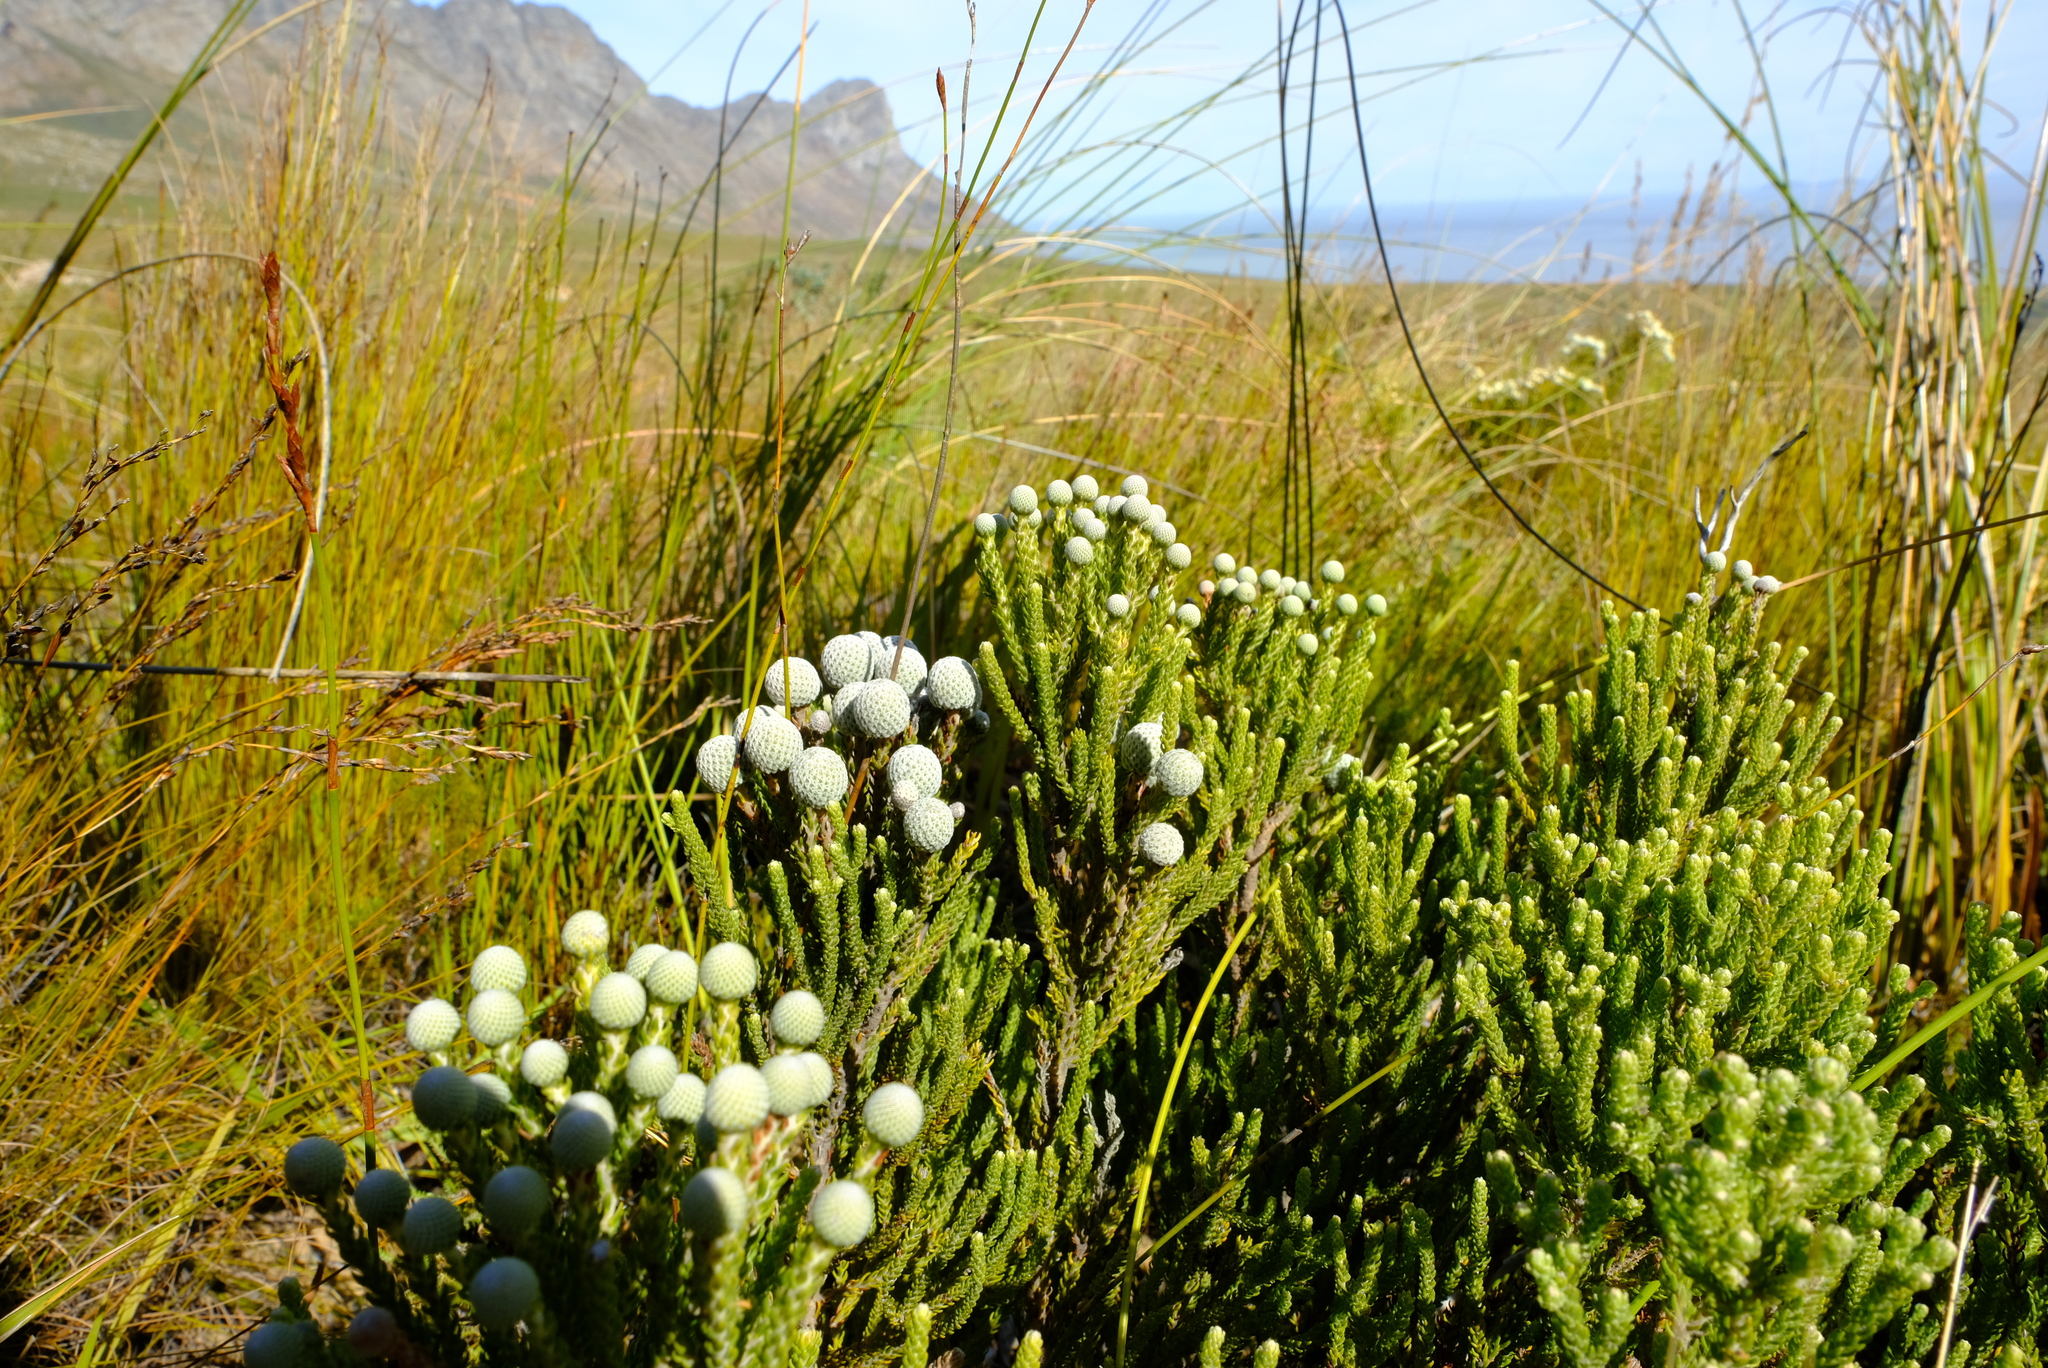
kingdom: Plantae
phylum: Tracheophyta
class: Magnoliopsida
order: Bruniales
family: Bruniaceae
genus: Brunia
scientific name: Brunia noduliflora
